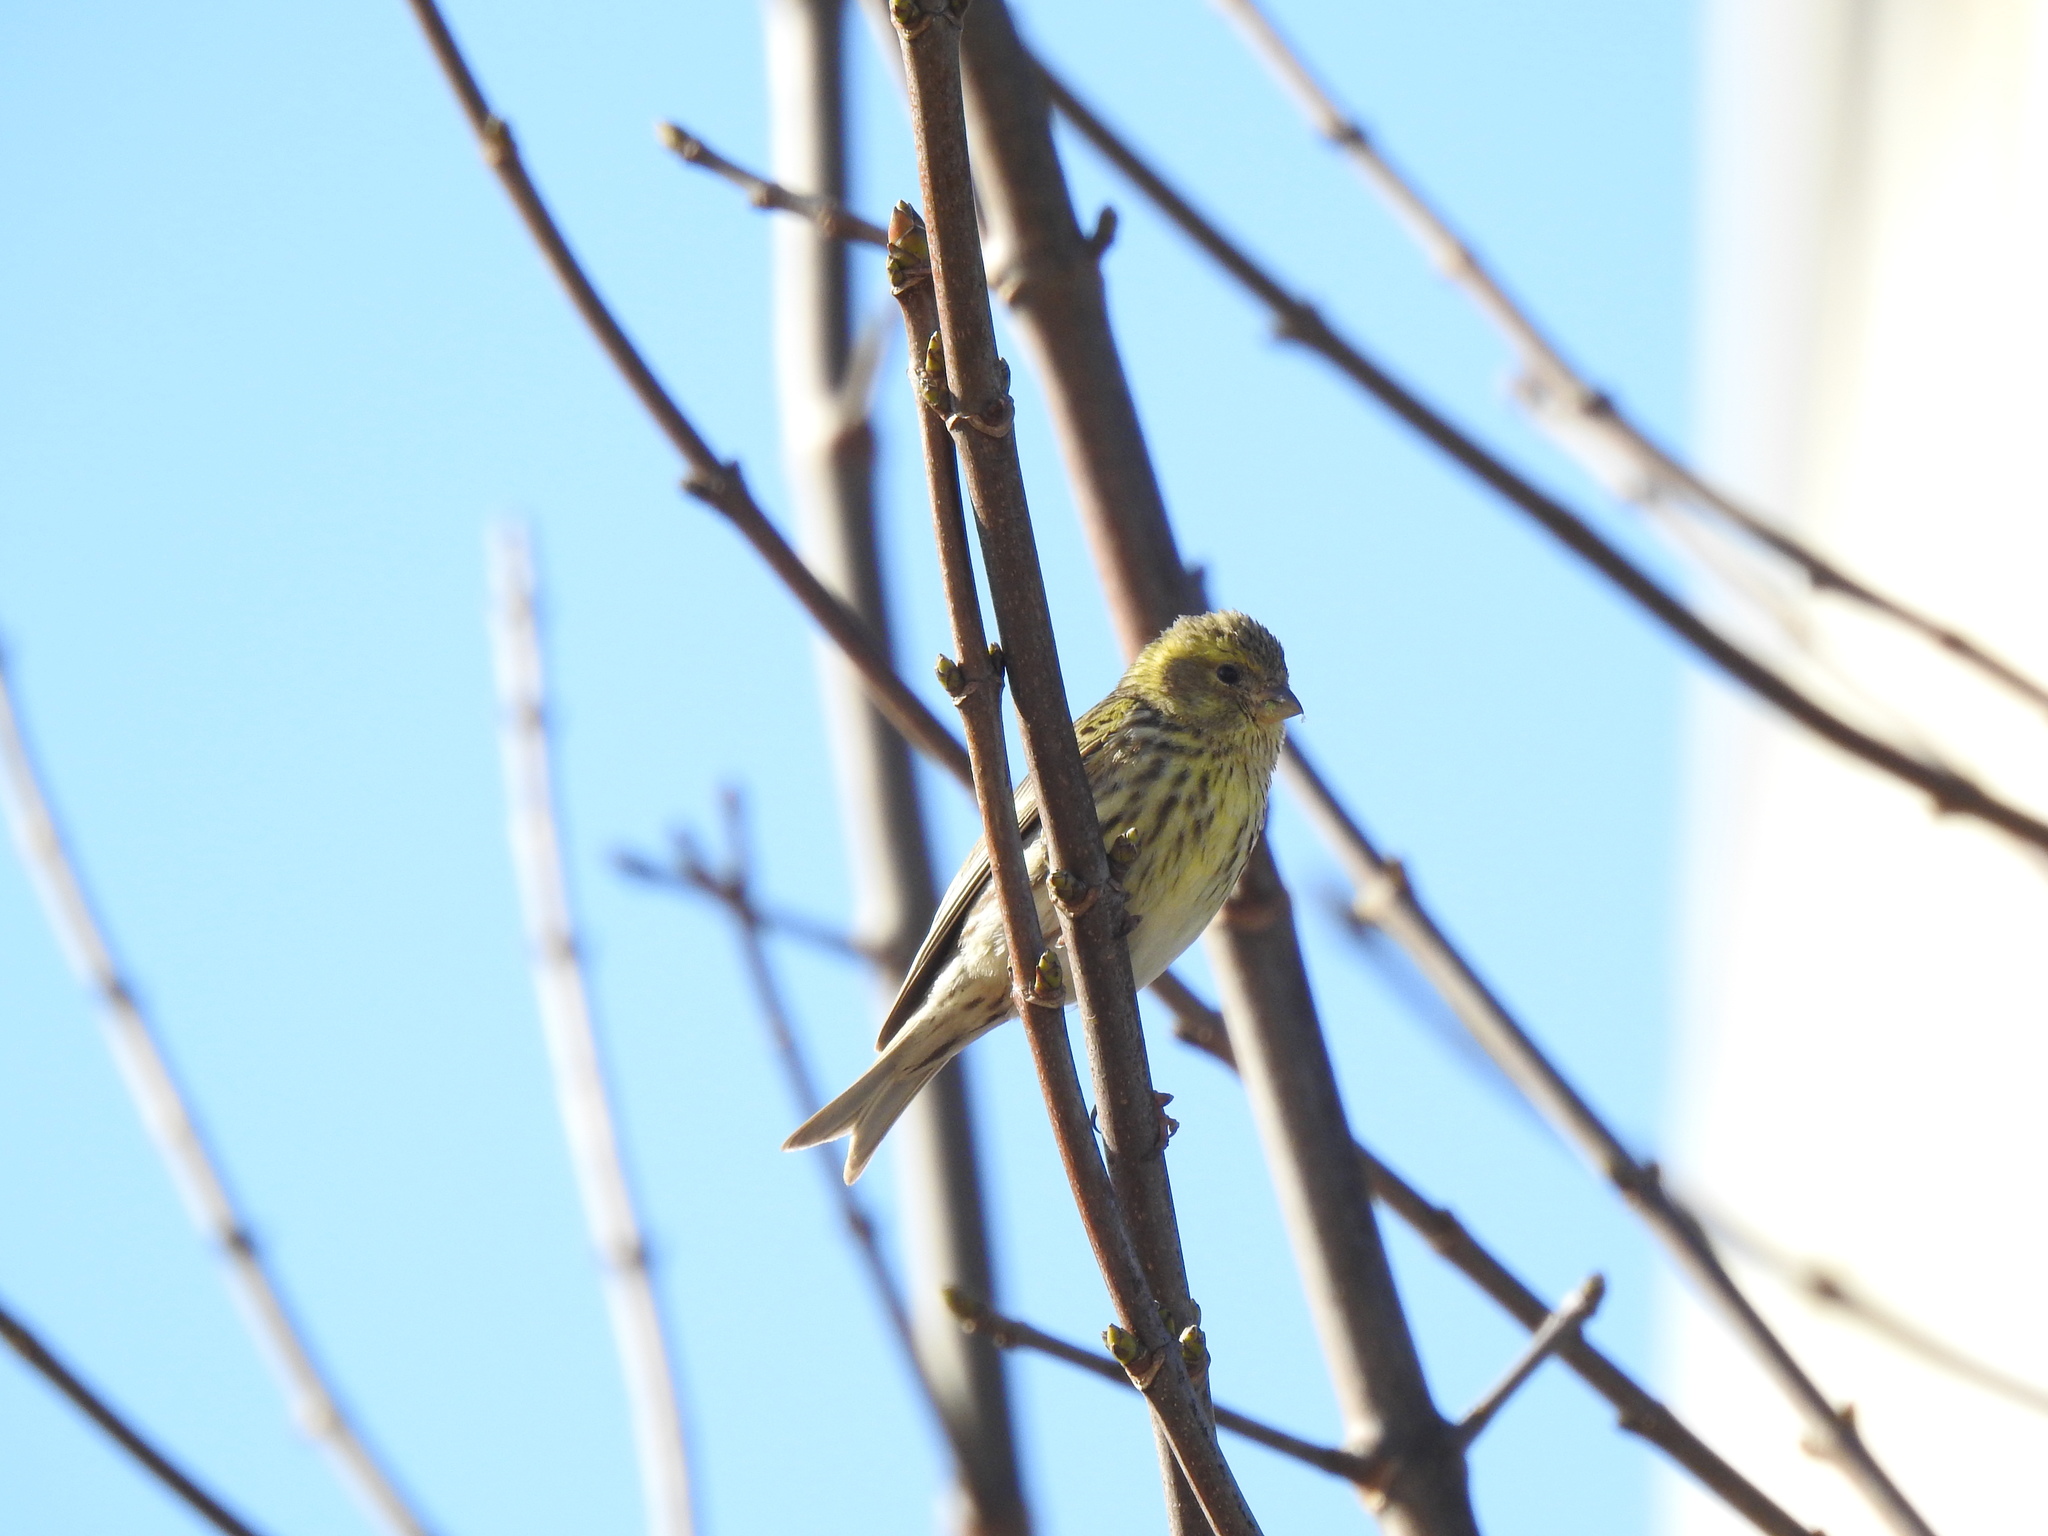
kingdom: Animalia
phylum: Chordata
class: Aves
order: Passeriformes
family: Fringillidae
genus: Serinus
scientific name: Serinus serinus
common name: European serin
